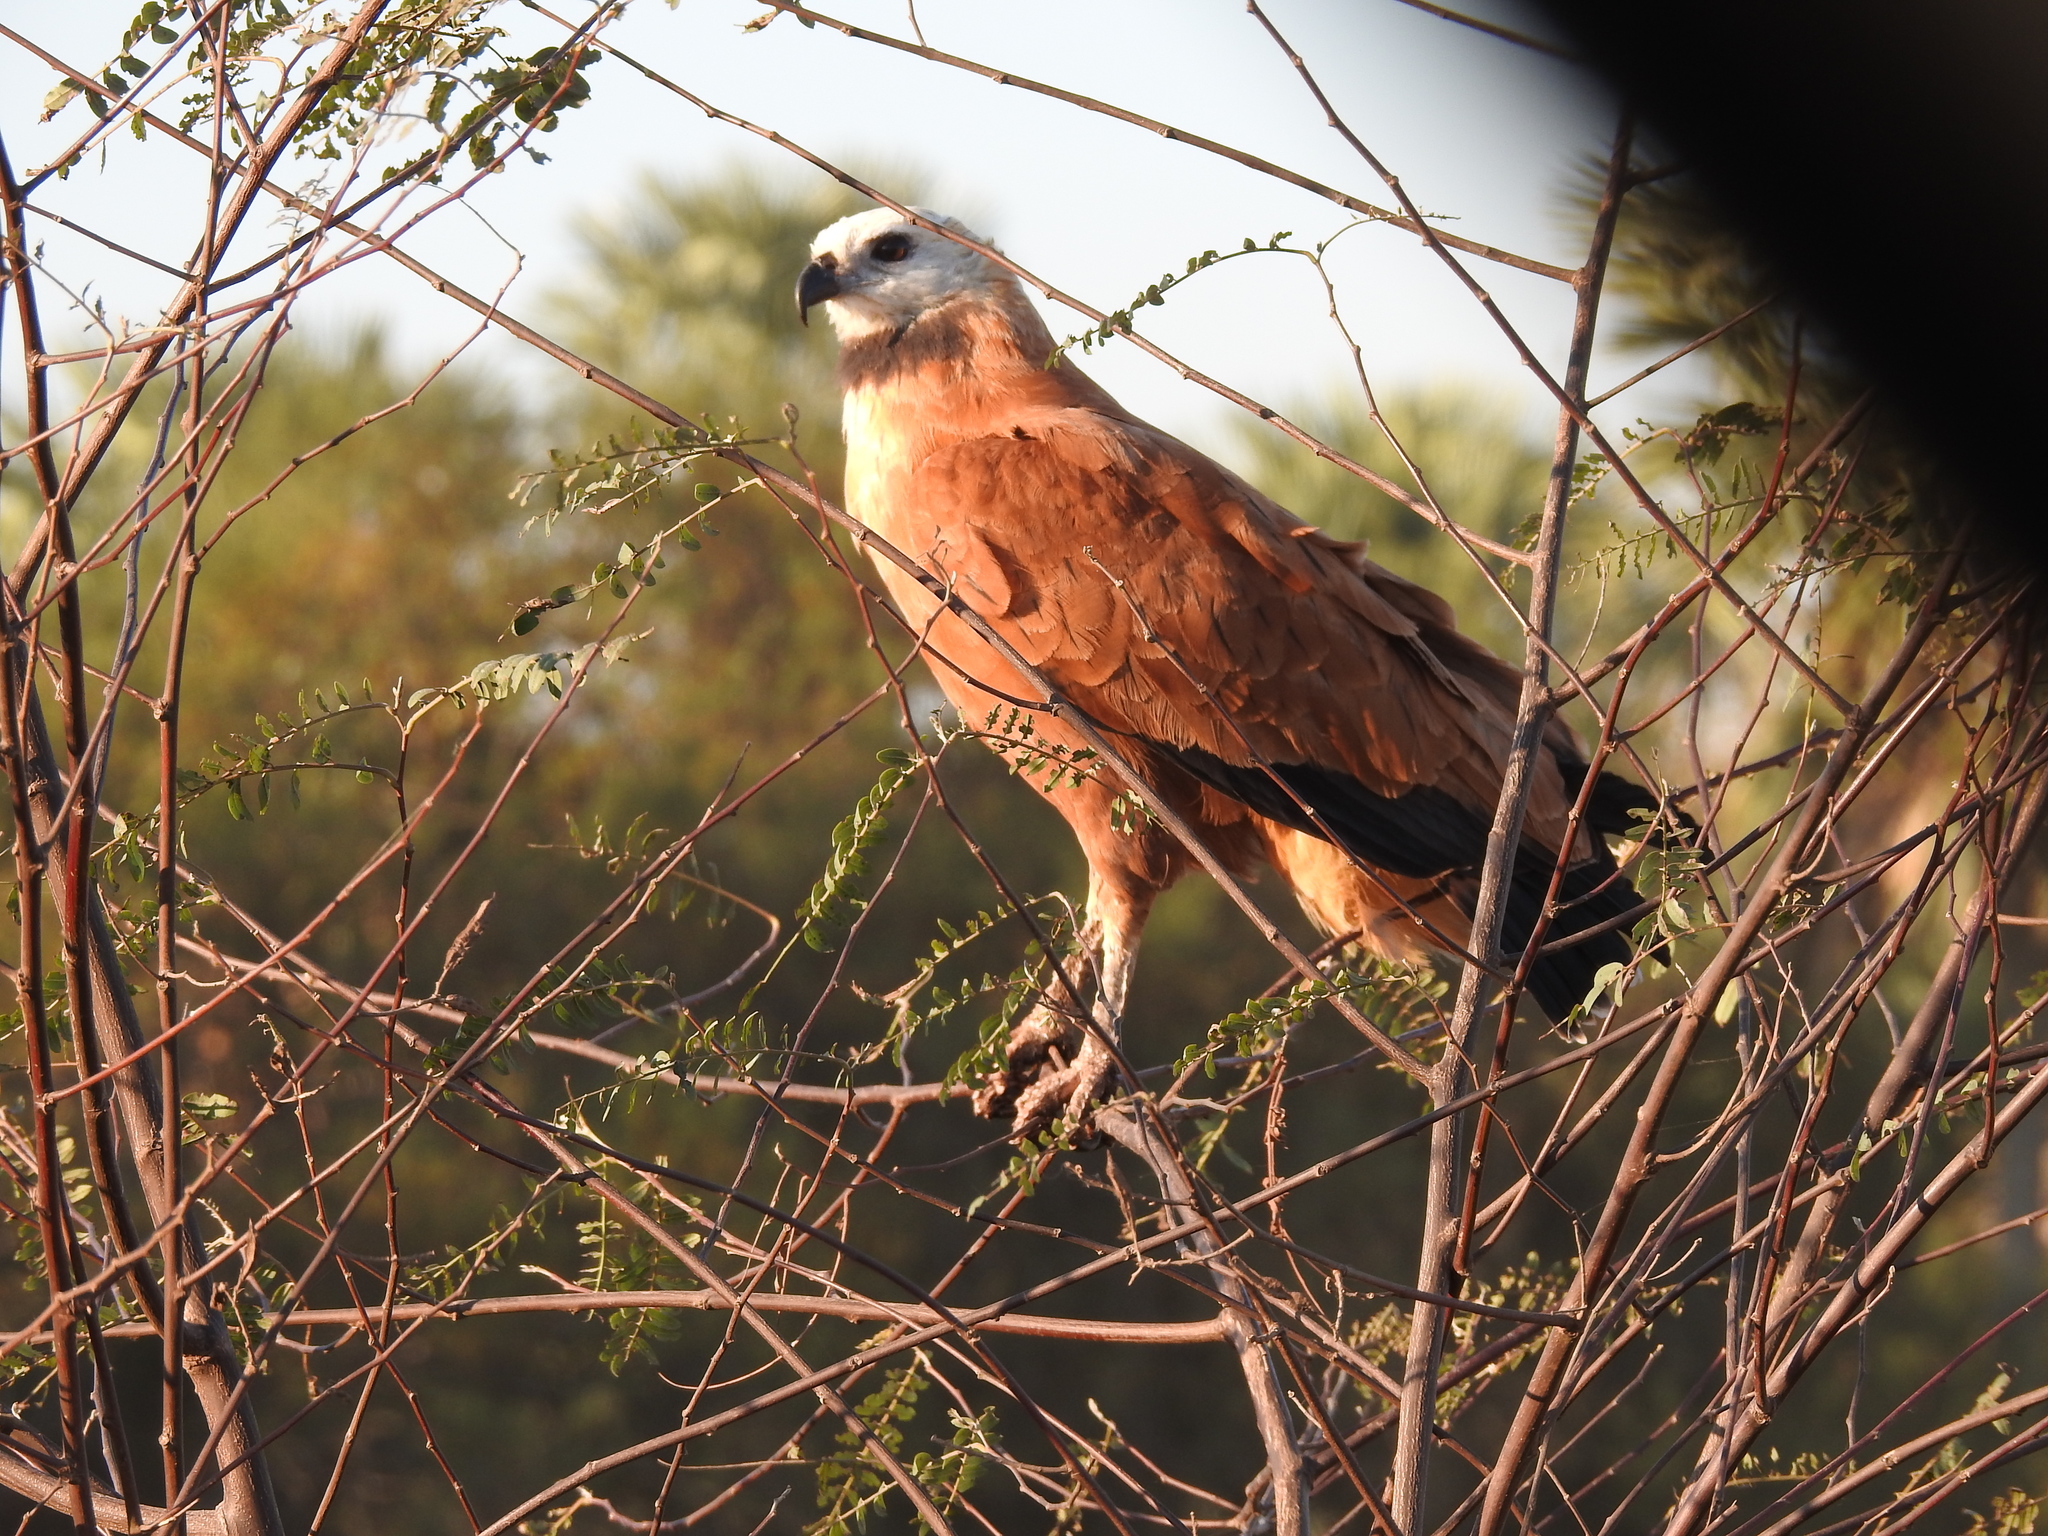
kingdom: Animalia
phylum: Chordata
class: Aves
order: Accipitriformes
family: Accipitridae
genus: Busarellus
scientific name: Busarellus nigricollis
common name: Black-collared hawk
